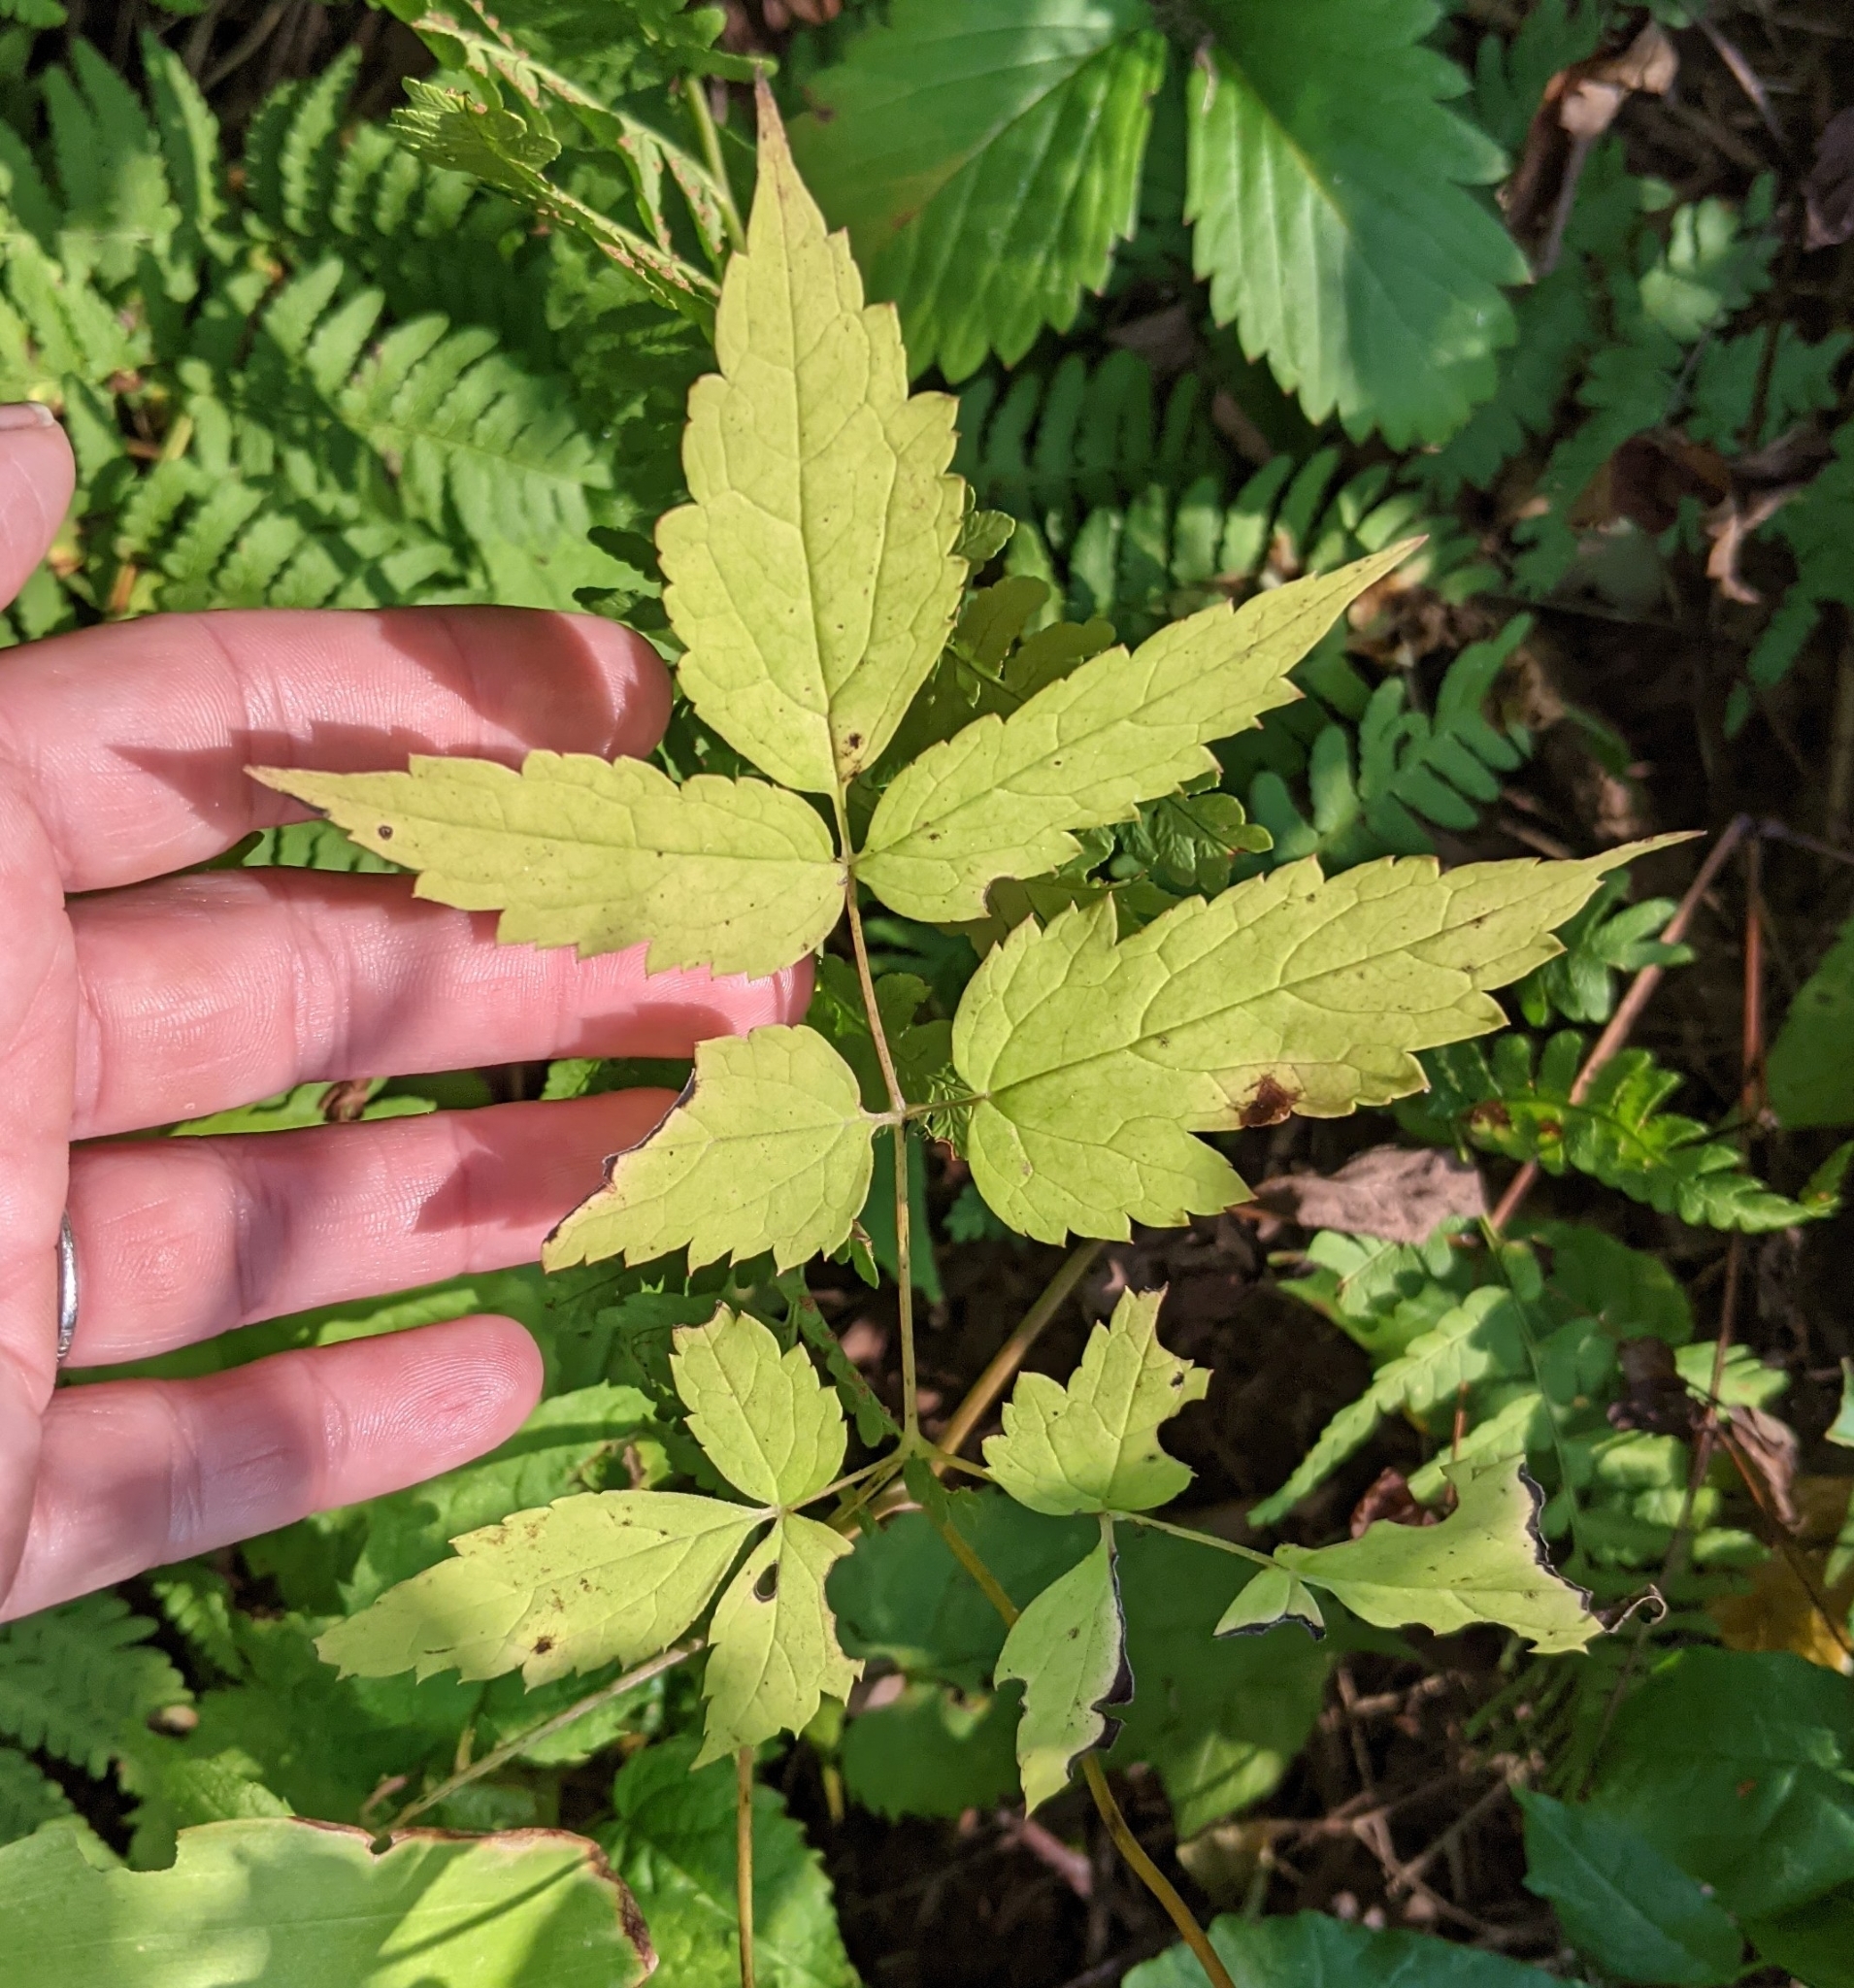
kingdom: Plantae
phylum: Tracheophyta
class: Magnoliopsida
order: Ranunculales
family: Ranunculaceae
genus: Actaea
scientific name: Actaea pachypoda
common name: Doll's-eyes
